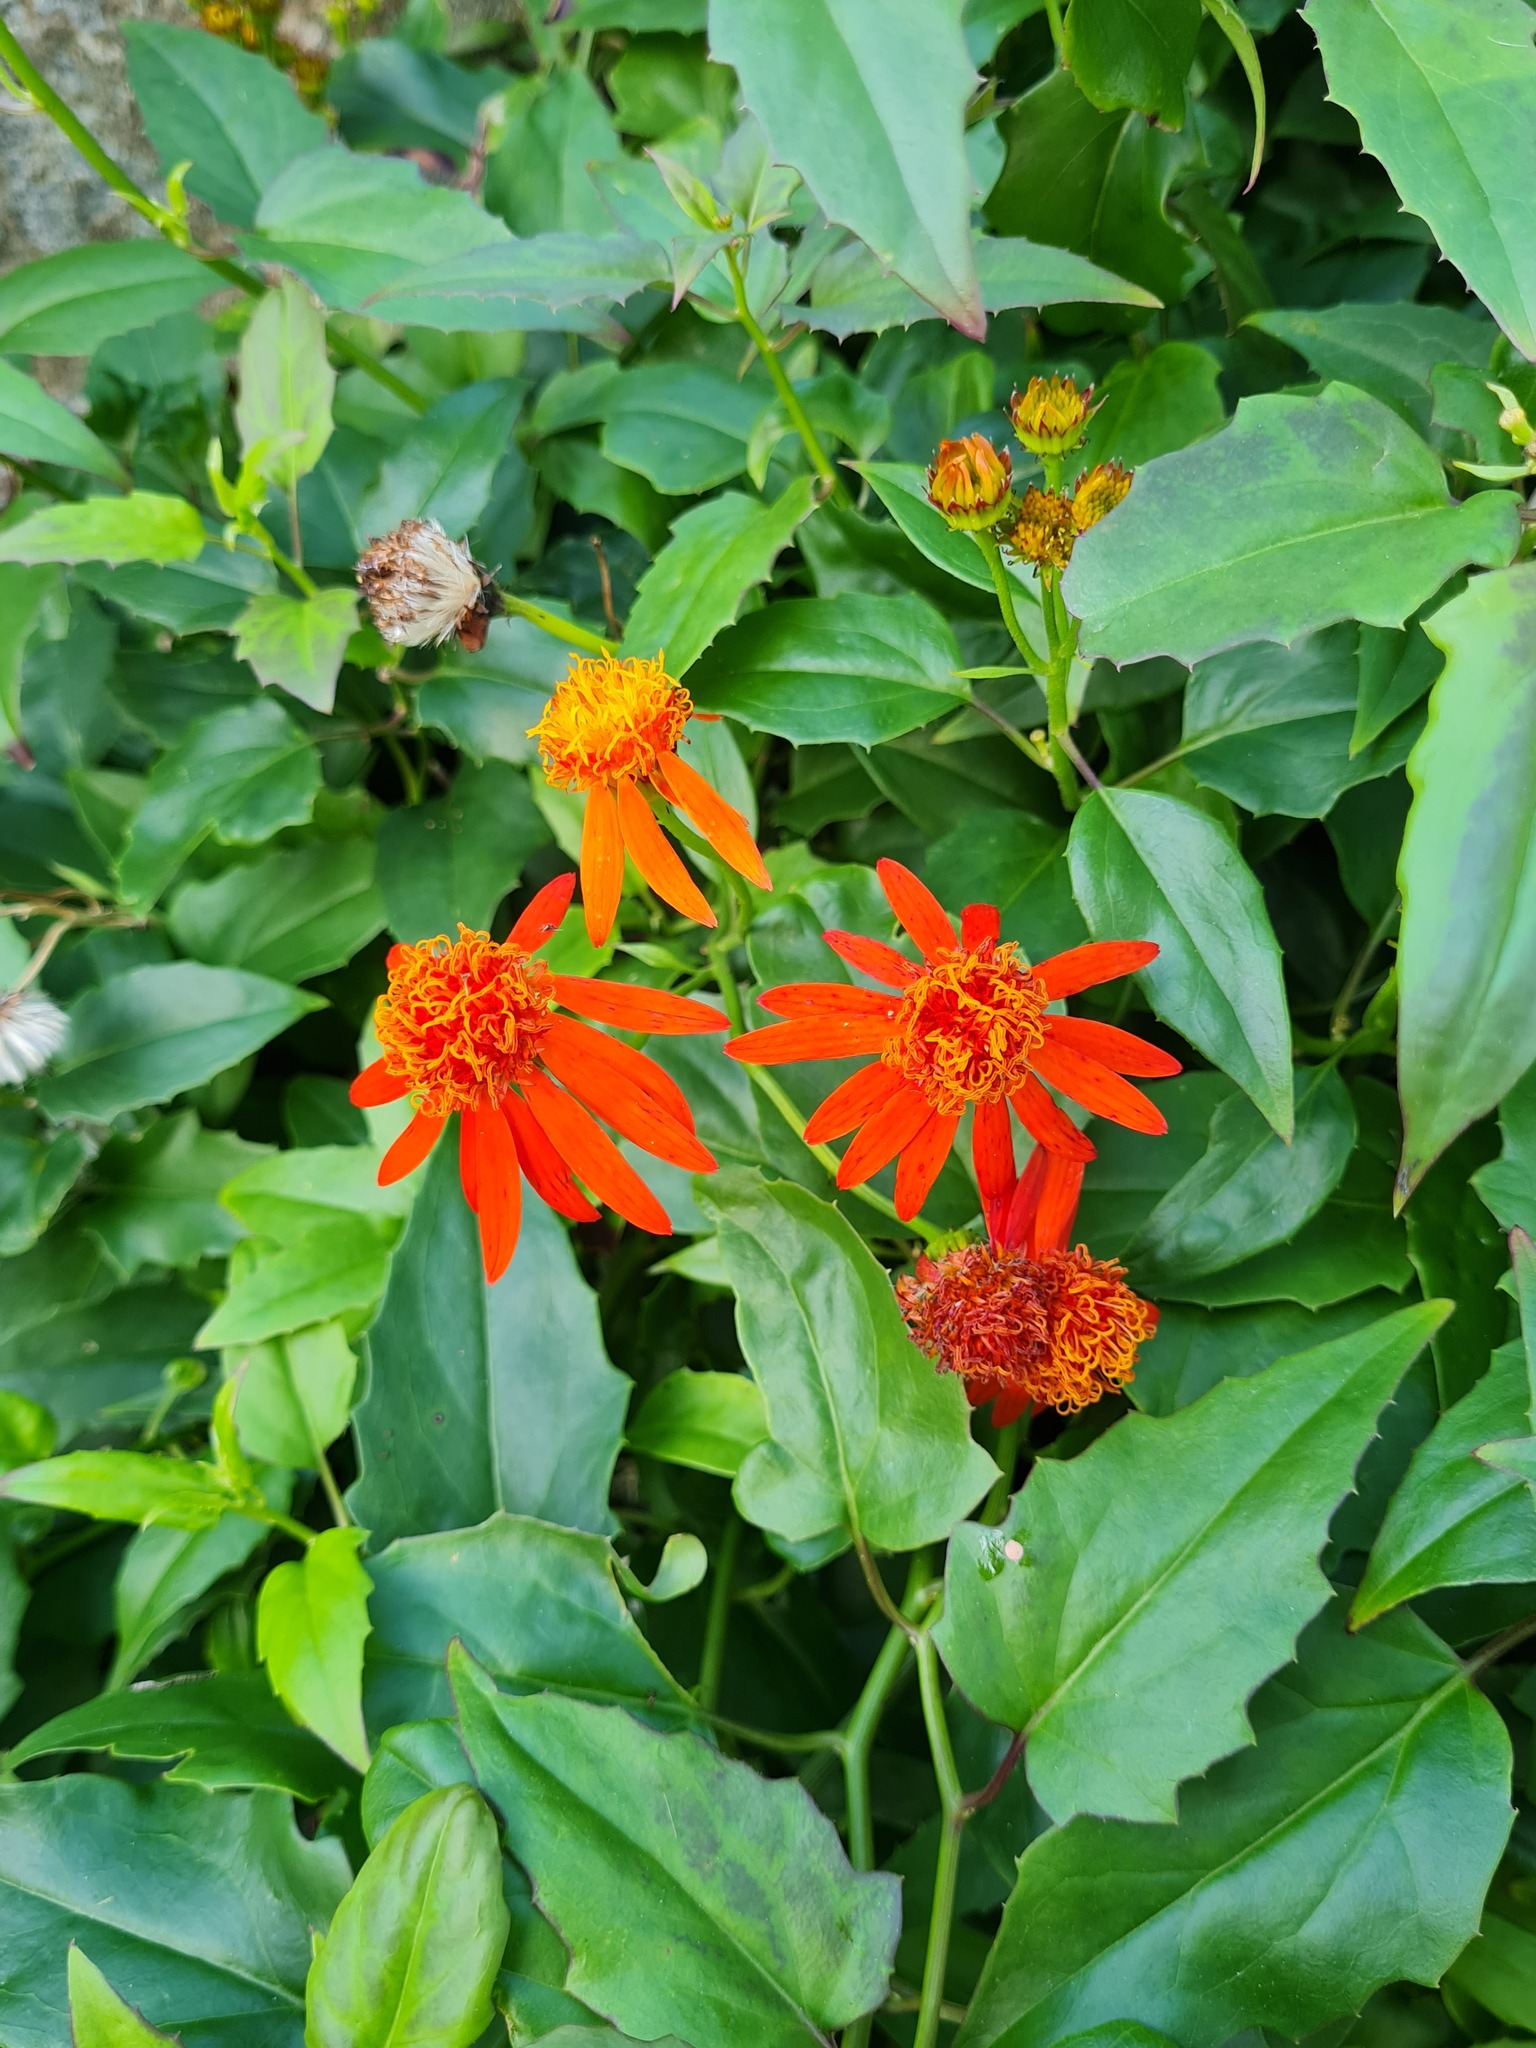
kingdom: Plantae
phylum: Tracheophyta
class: Magnoliopsida
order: Asterales
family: Asteraceae
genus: Pseudogynoxys
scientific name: Pseudogynoxys chenopodioides
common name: Mexican flamevine
